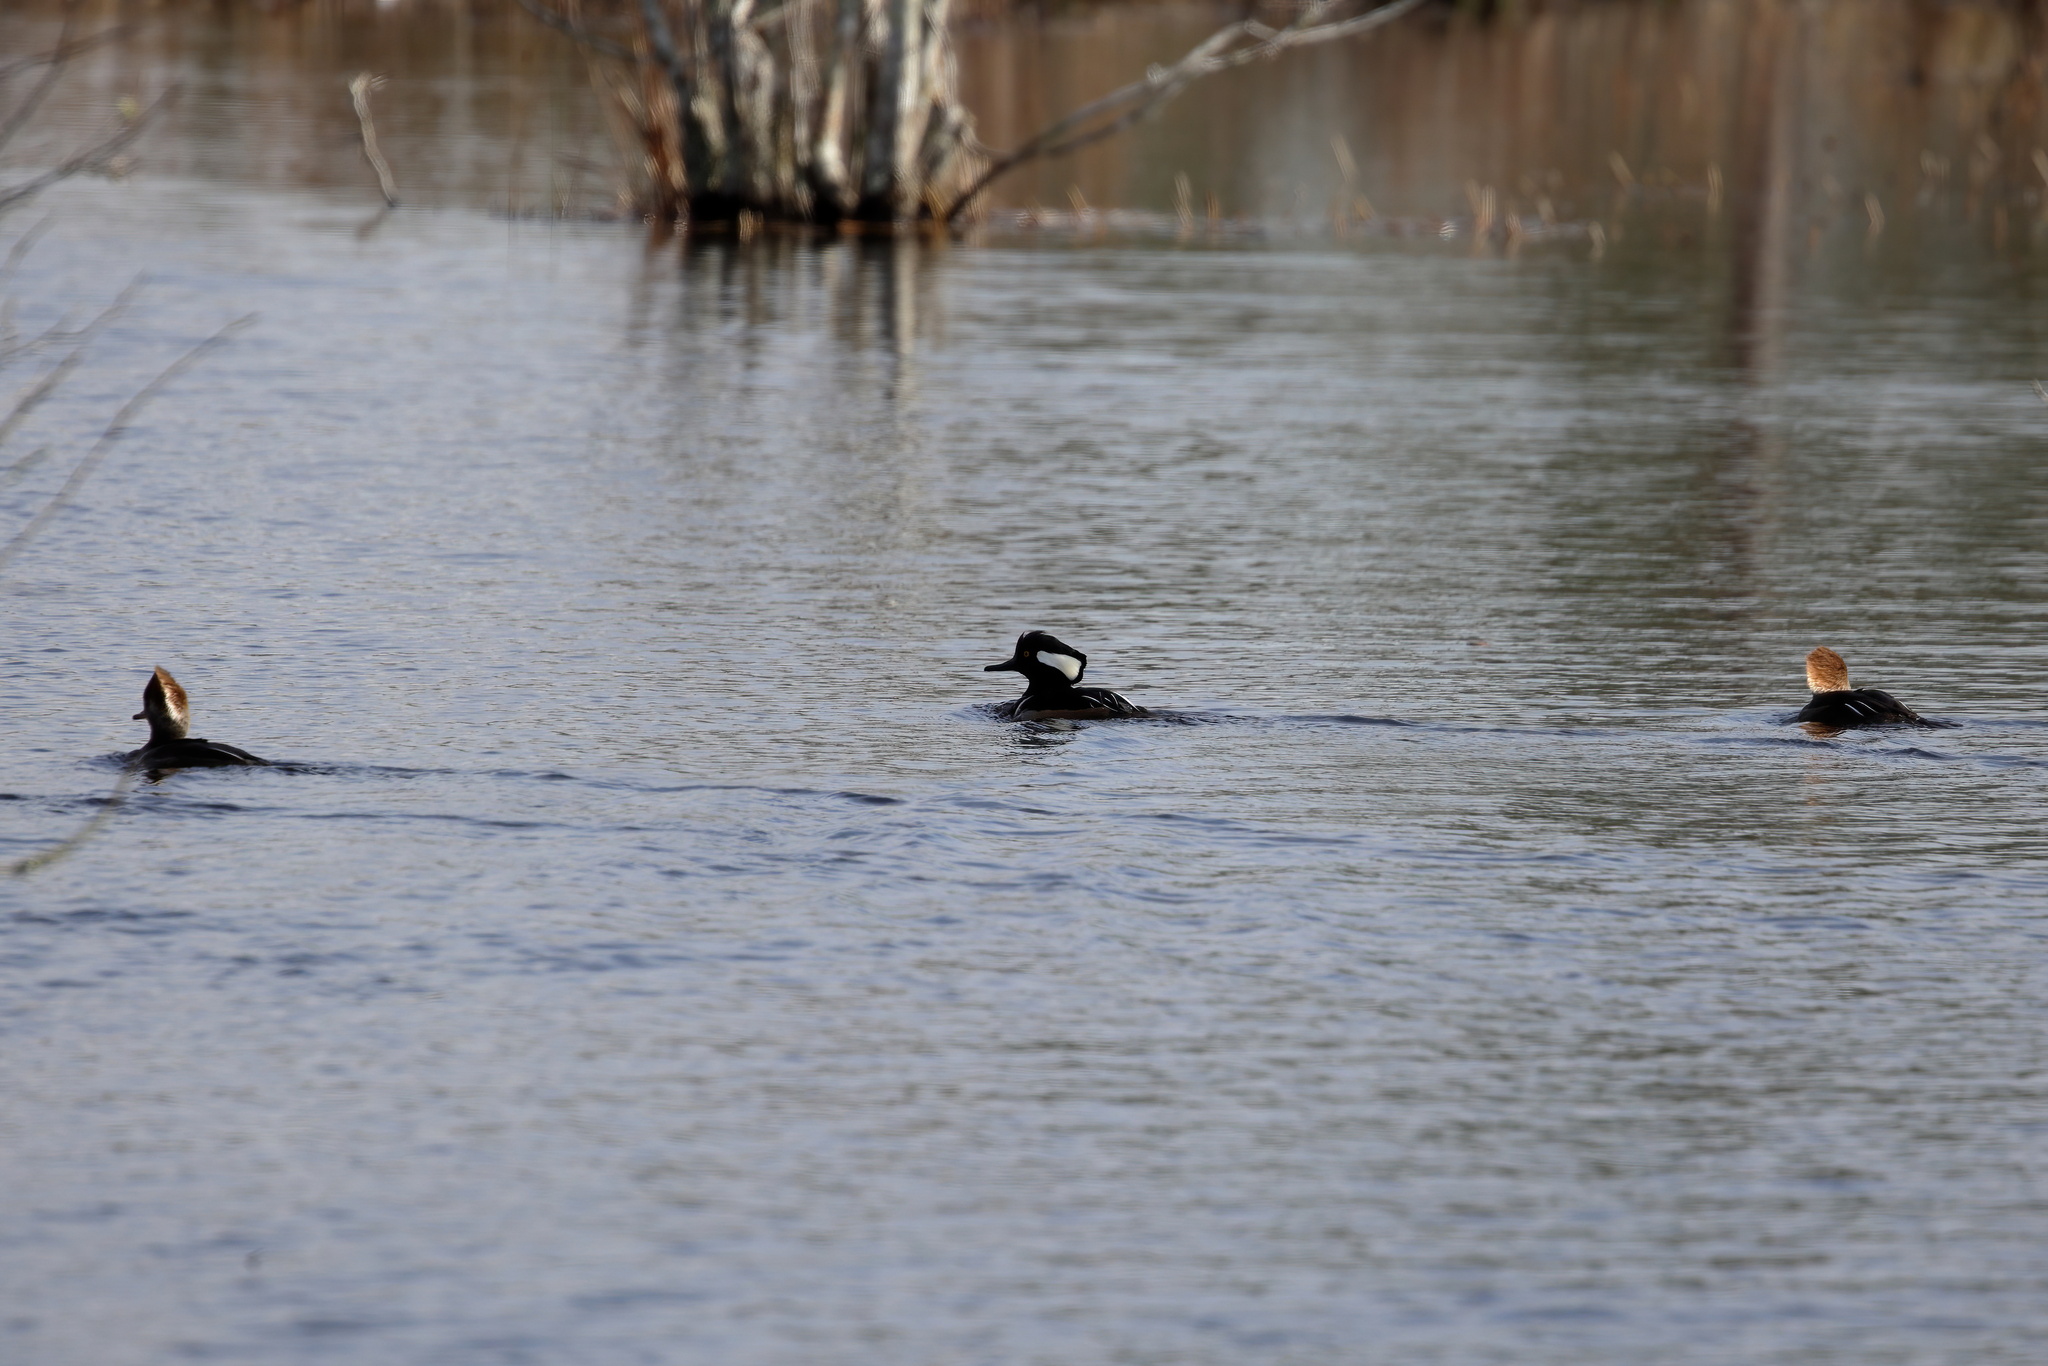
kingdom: Animalia
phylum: Chordata
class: Aves
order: Anseriformes
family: Anatidae
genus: Lophodytes
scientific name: Lophodytes cucullatus
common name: Hooded merganser
